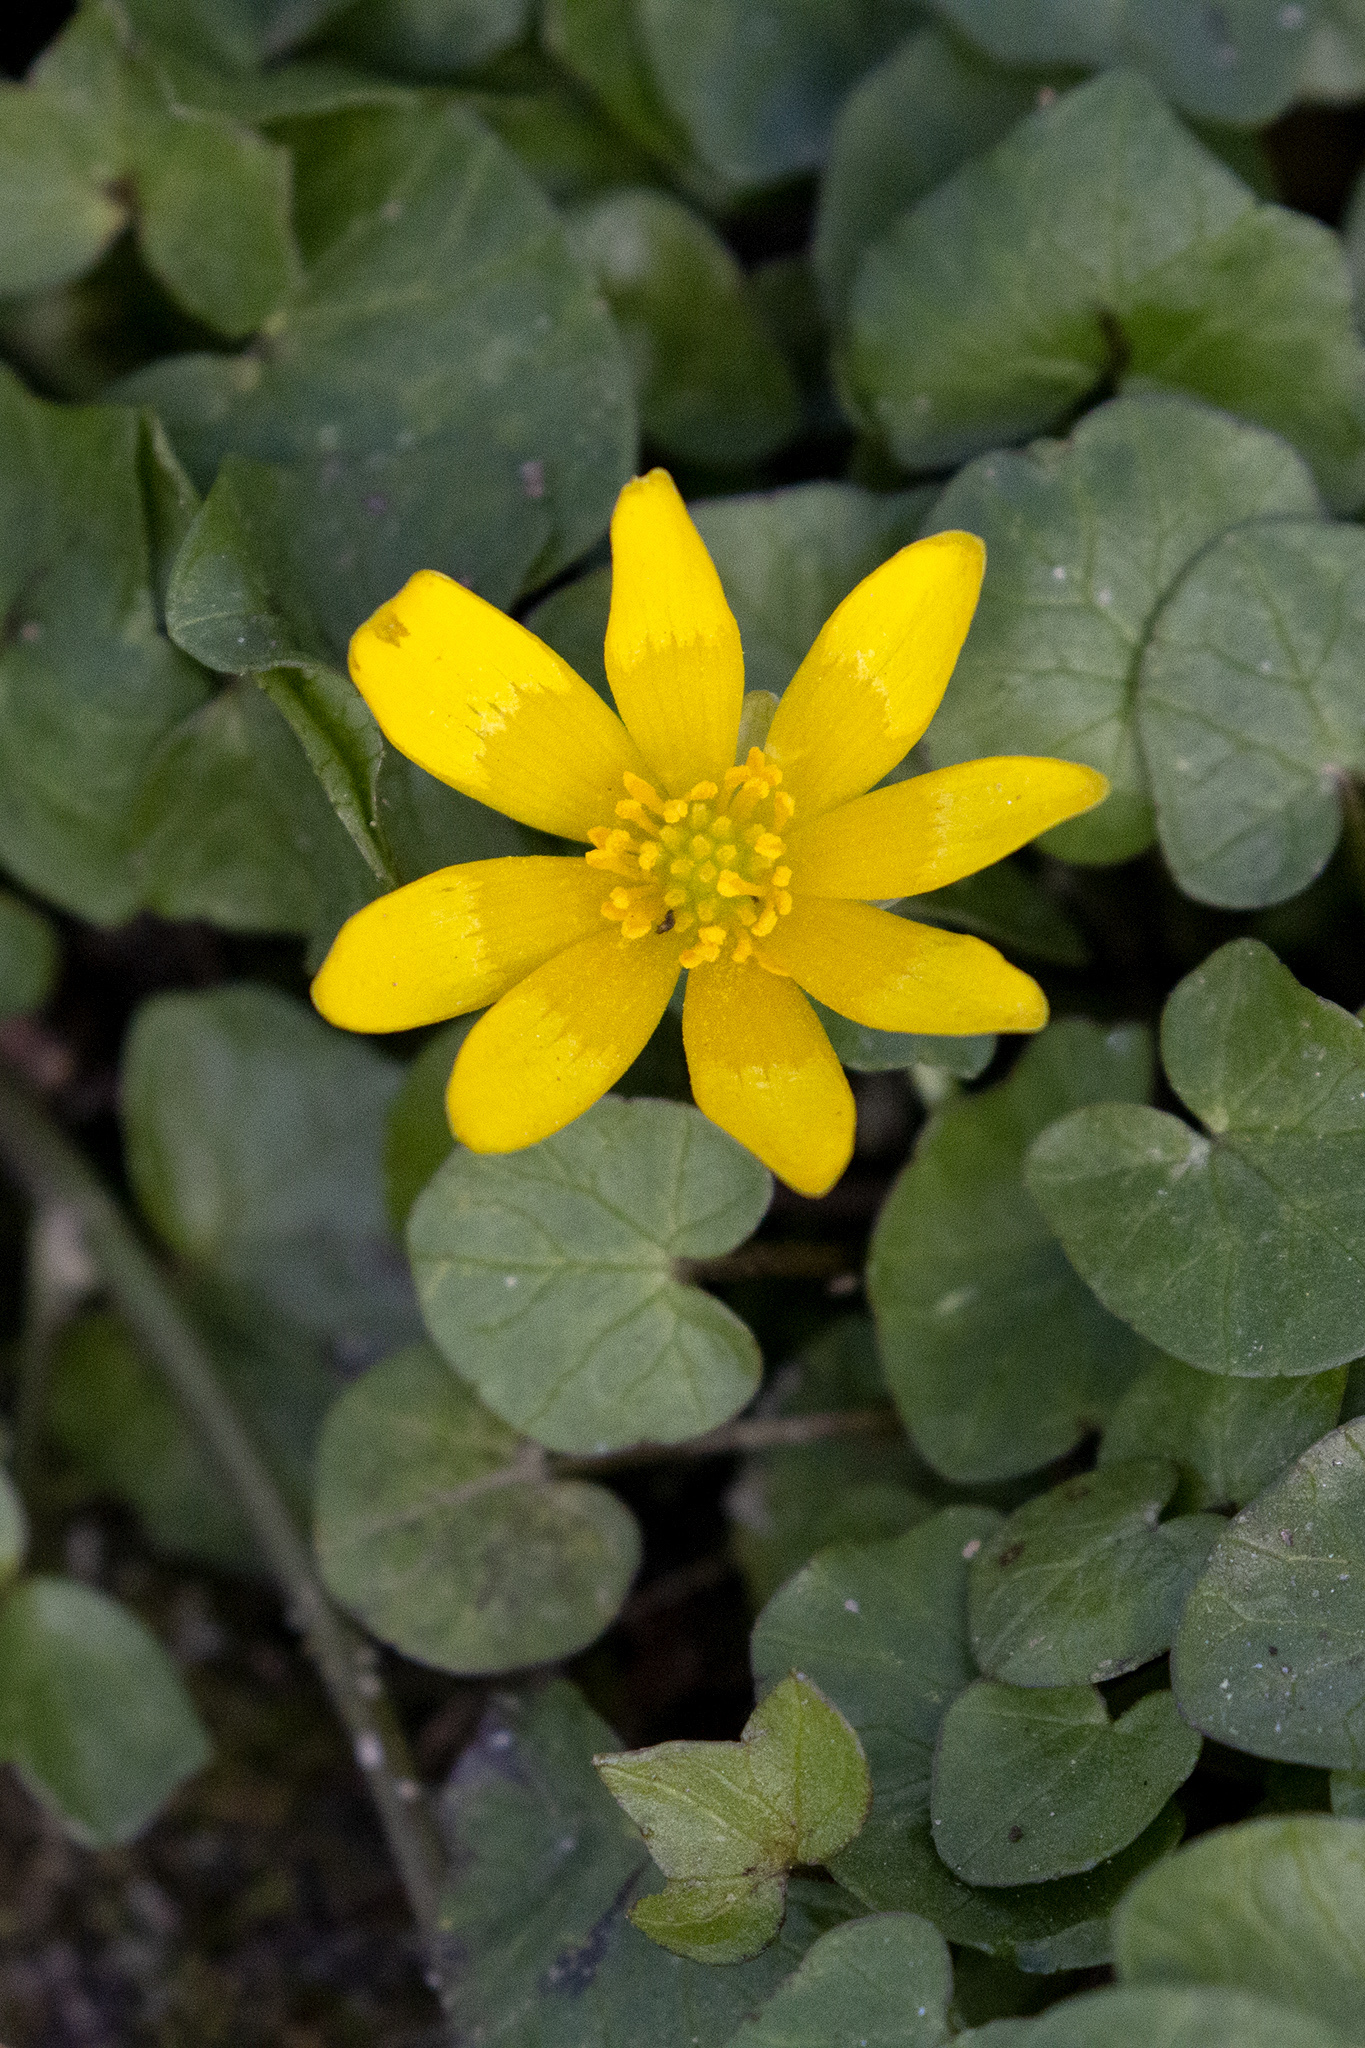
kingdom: Plantae
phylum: Tracheophyta
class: Magnoliopsida
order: Ranunculales
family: Ranunculaceae
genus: Ficaria
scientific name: Ficaria verna
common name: Lesser celandine
